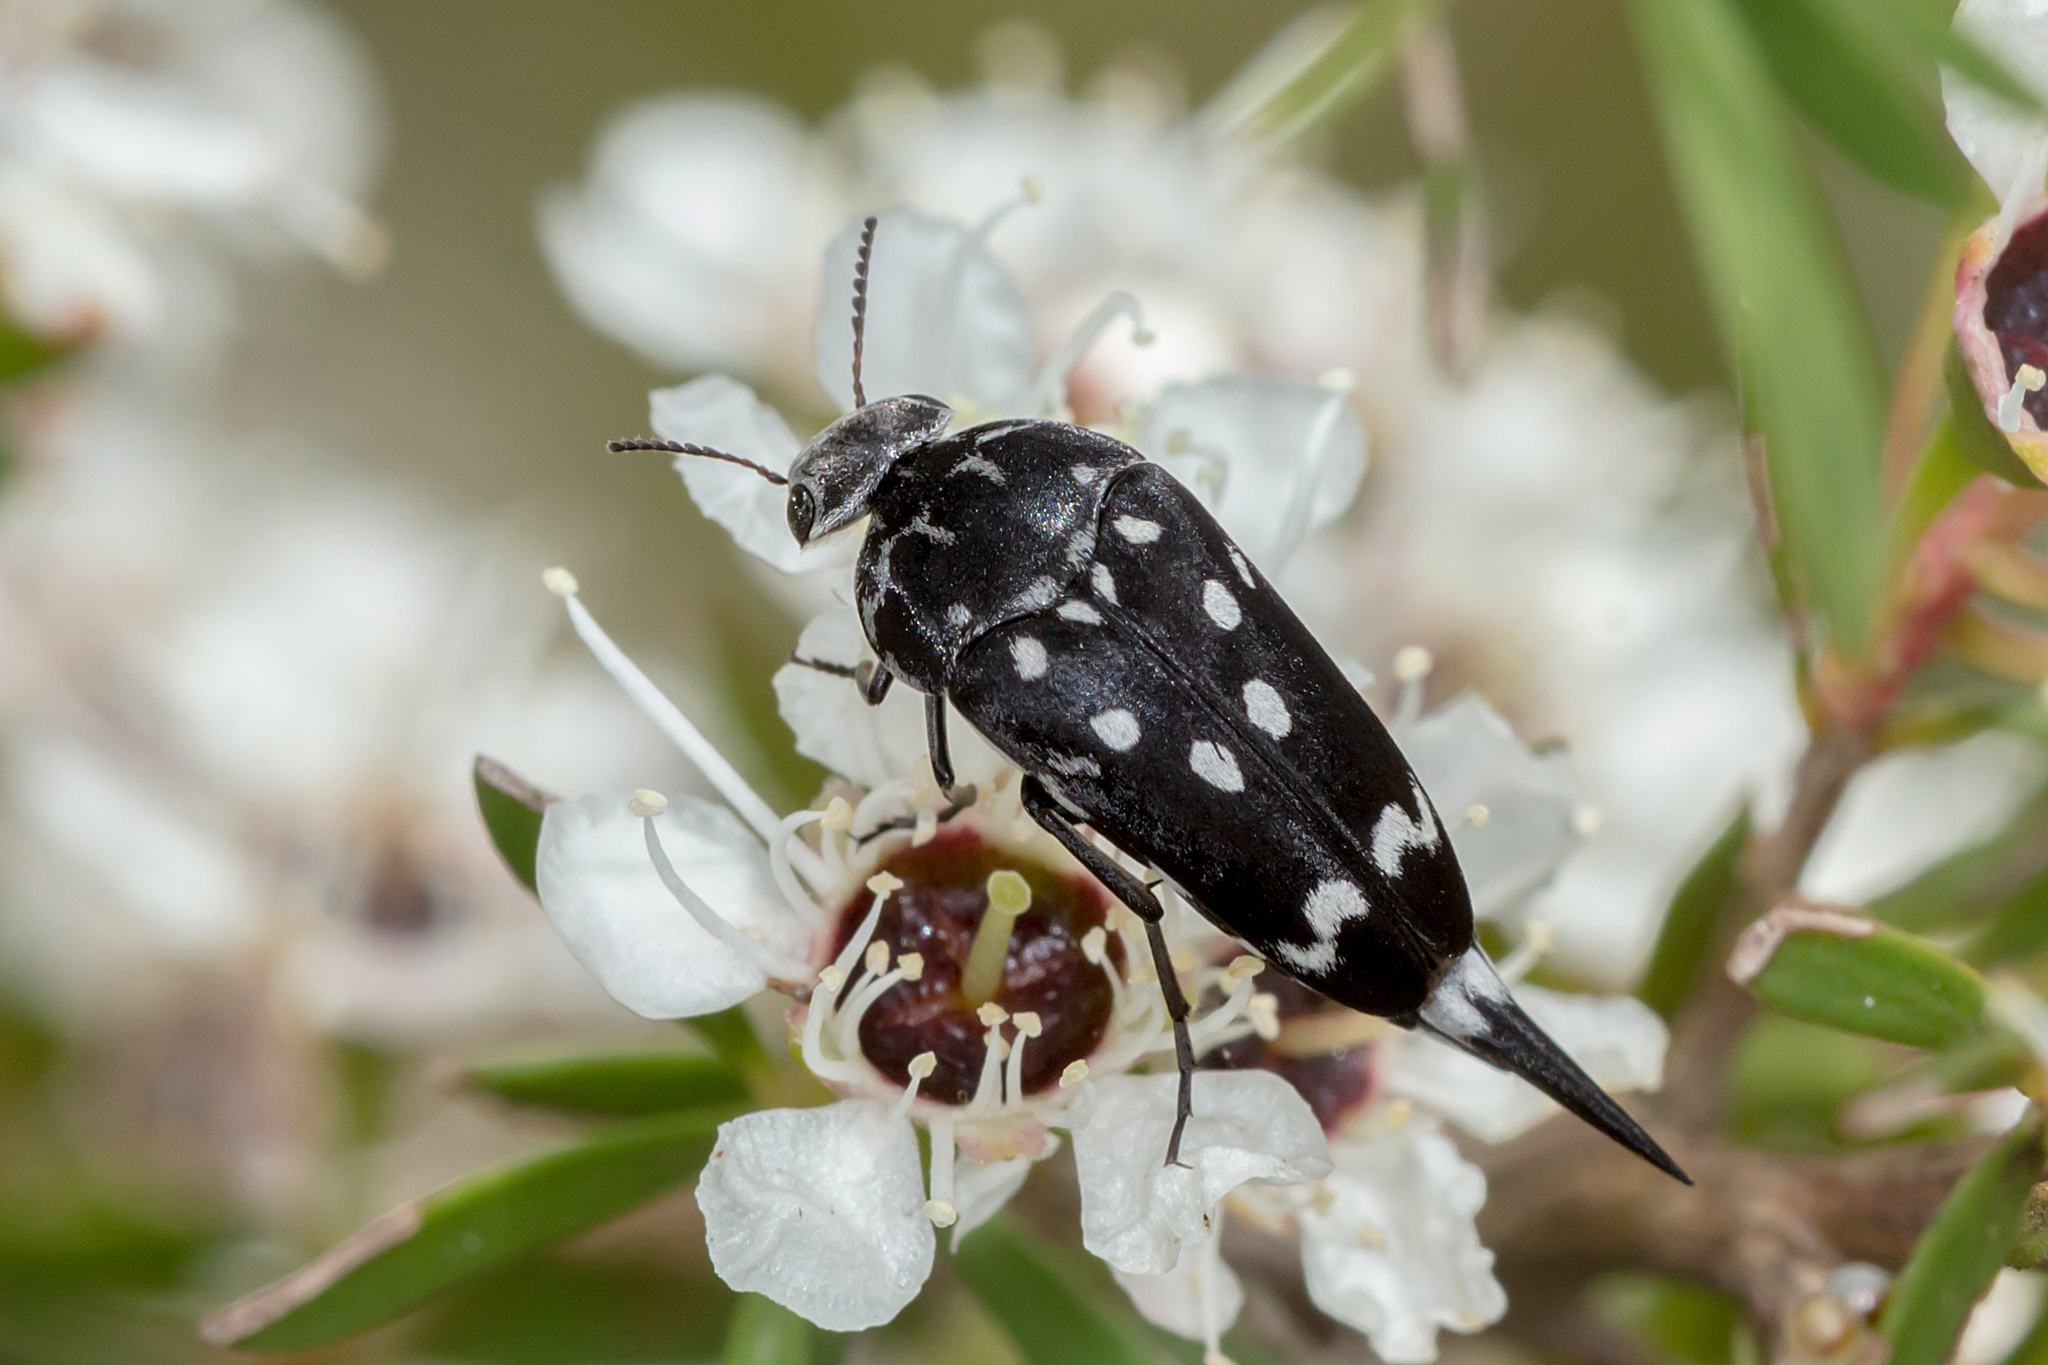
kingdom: Animalia
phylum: Arthropoda
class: Insecta
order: Coleoptera
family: Mordellidae
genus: Hoshihananomia
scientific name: Hoshihananomia
